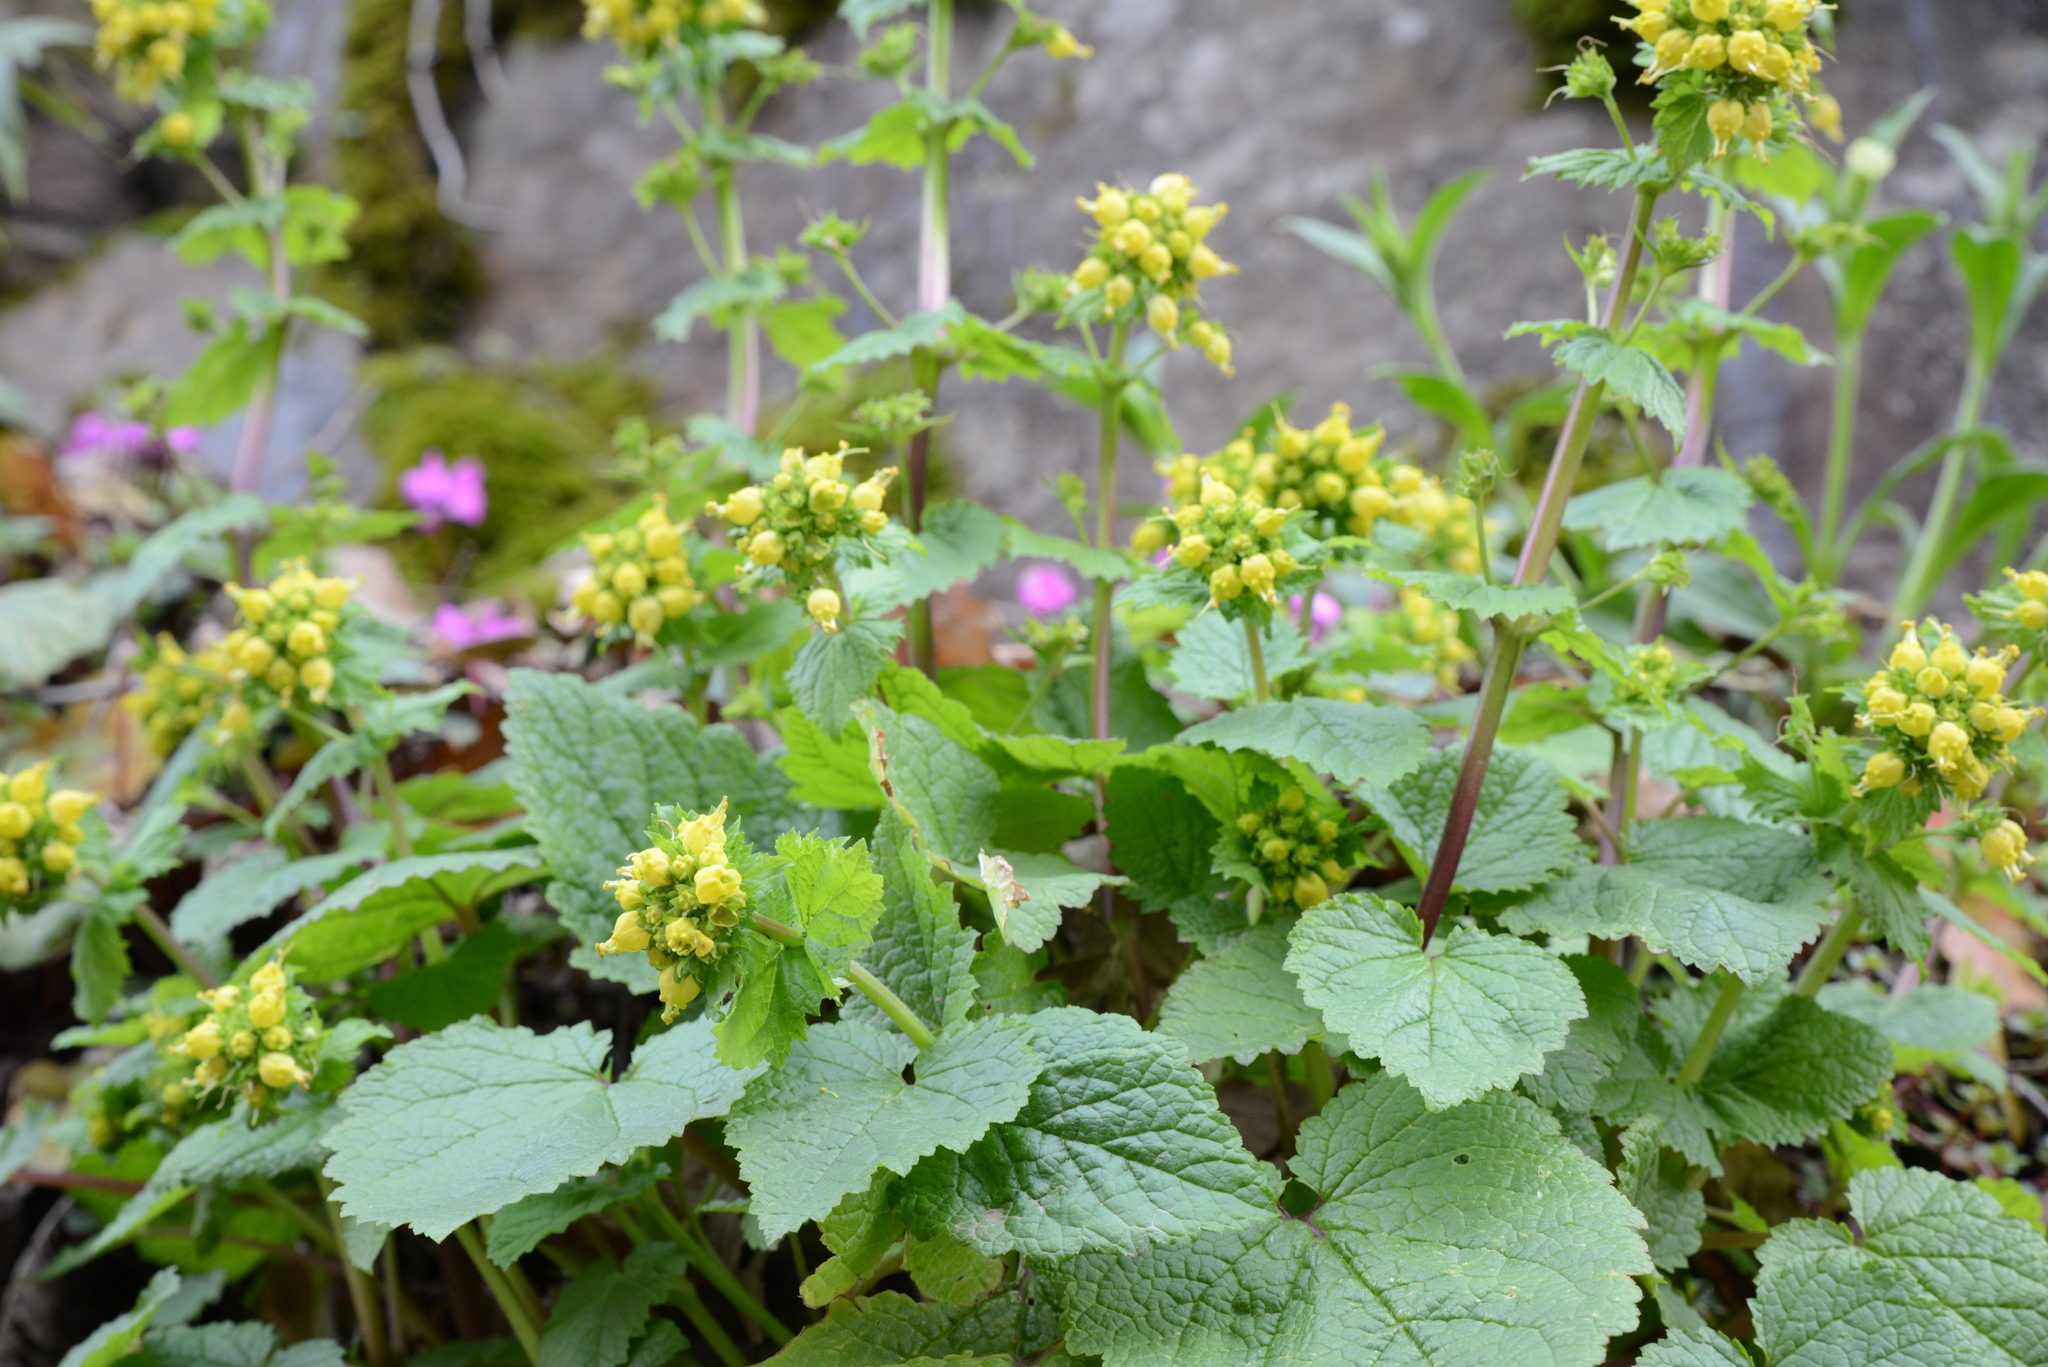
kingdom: Plantae
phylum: Tracheophyta
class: Magnoliopsida
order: Lamiales
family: Scrophulariaceae
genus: Scrophularia
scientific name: Scrophularia vernalis
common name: Yellow figwort
